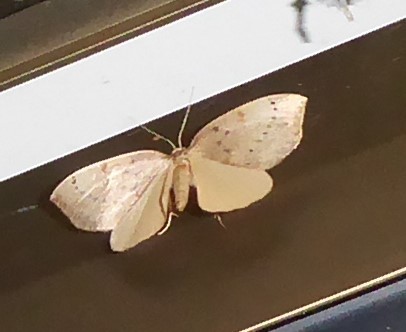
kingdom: Animalia
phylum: Arthropoda
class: Insecta
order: Lepidoptera
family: Geometridae
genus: Sestra
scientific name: Sestra humeraria
